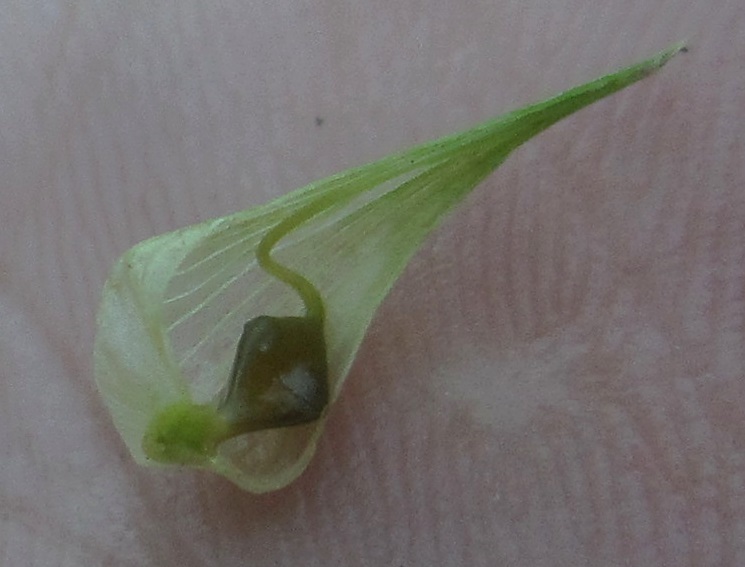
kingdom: Plantae
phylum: Tracheophyta
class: Liliopsida
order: Poales
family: Cyperaceae
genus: Carex
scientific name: Carex lupulina
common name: Hop sedge
